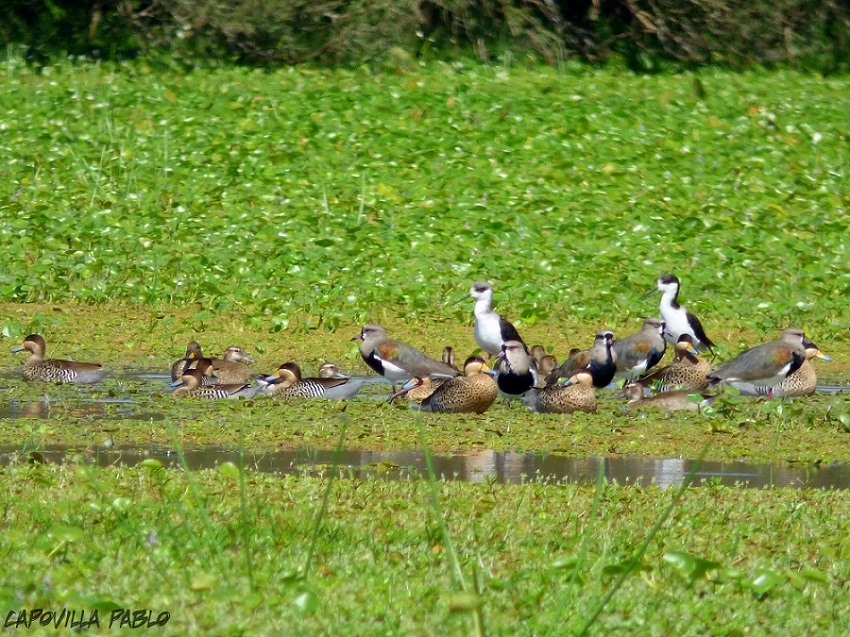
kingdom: Animalia
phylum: Chordata
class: Aves
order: Anseriformes
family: Anatidae
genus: Spatula
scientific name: Spatula versicolor
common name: Silver teal
